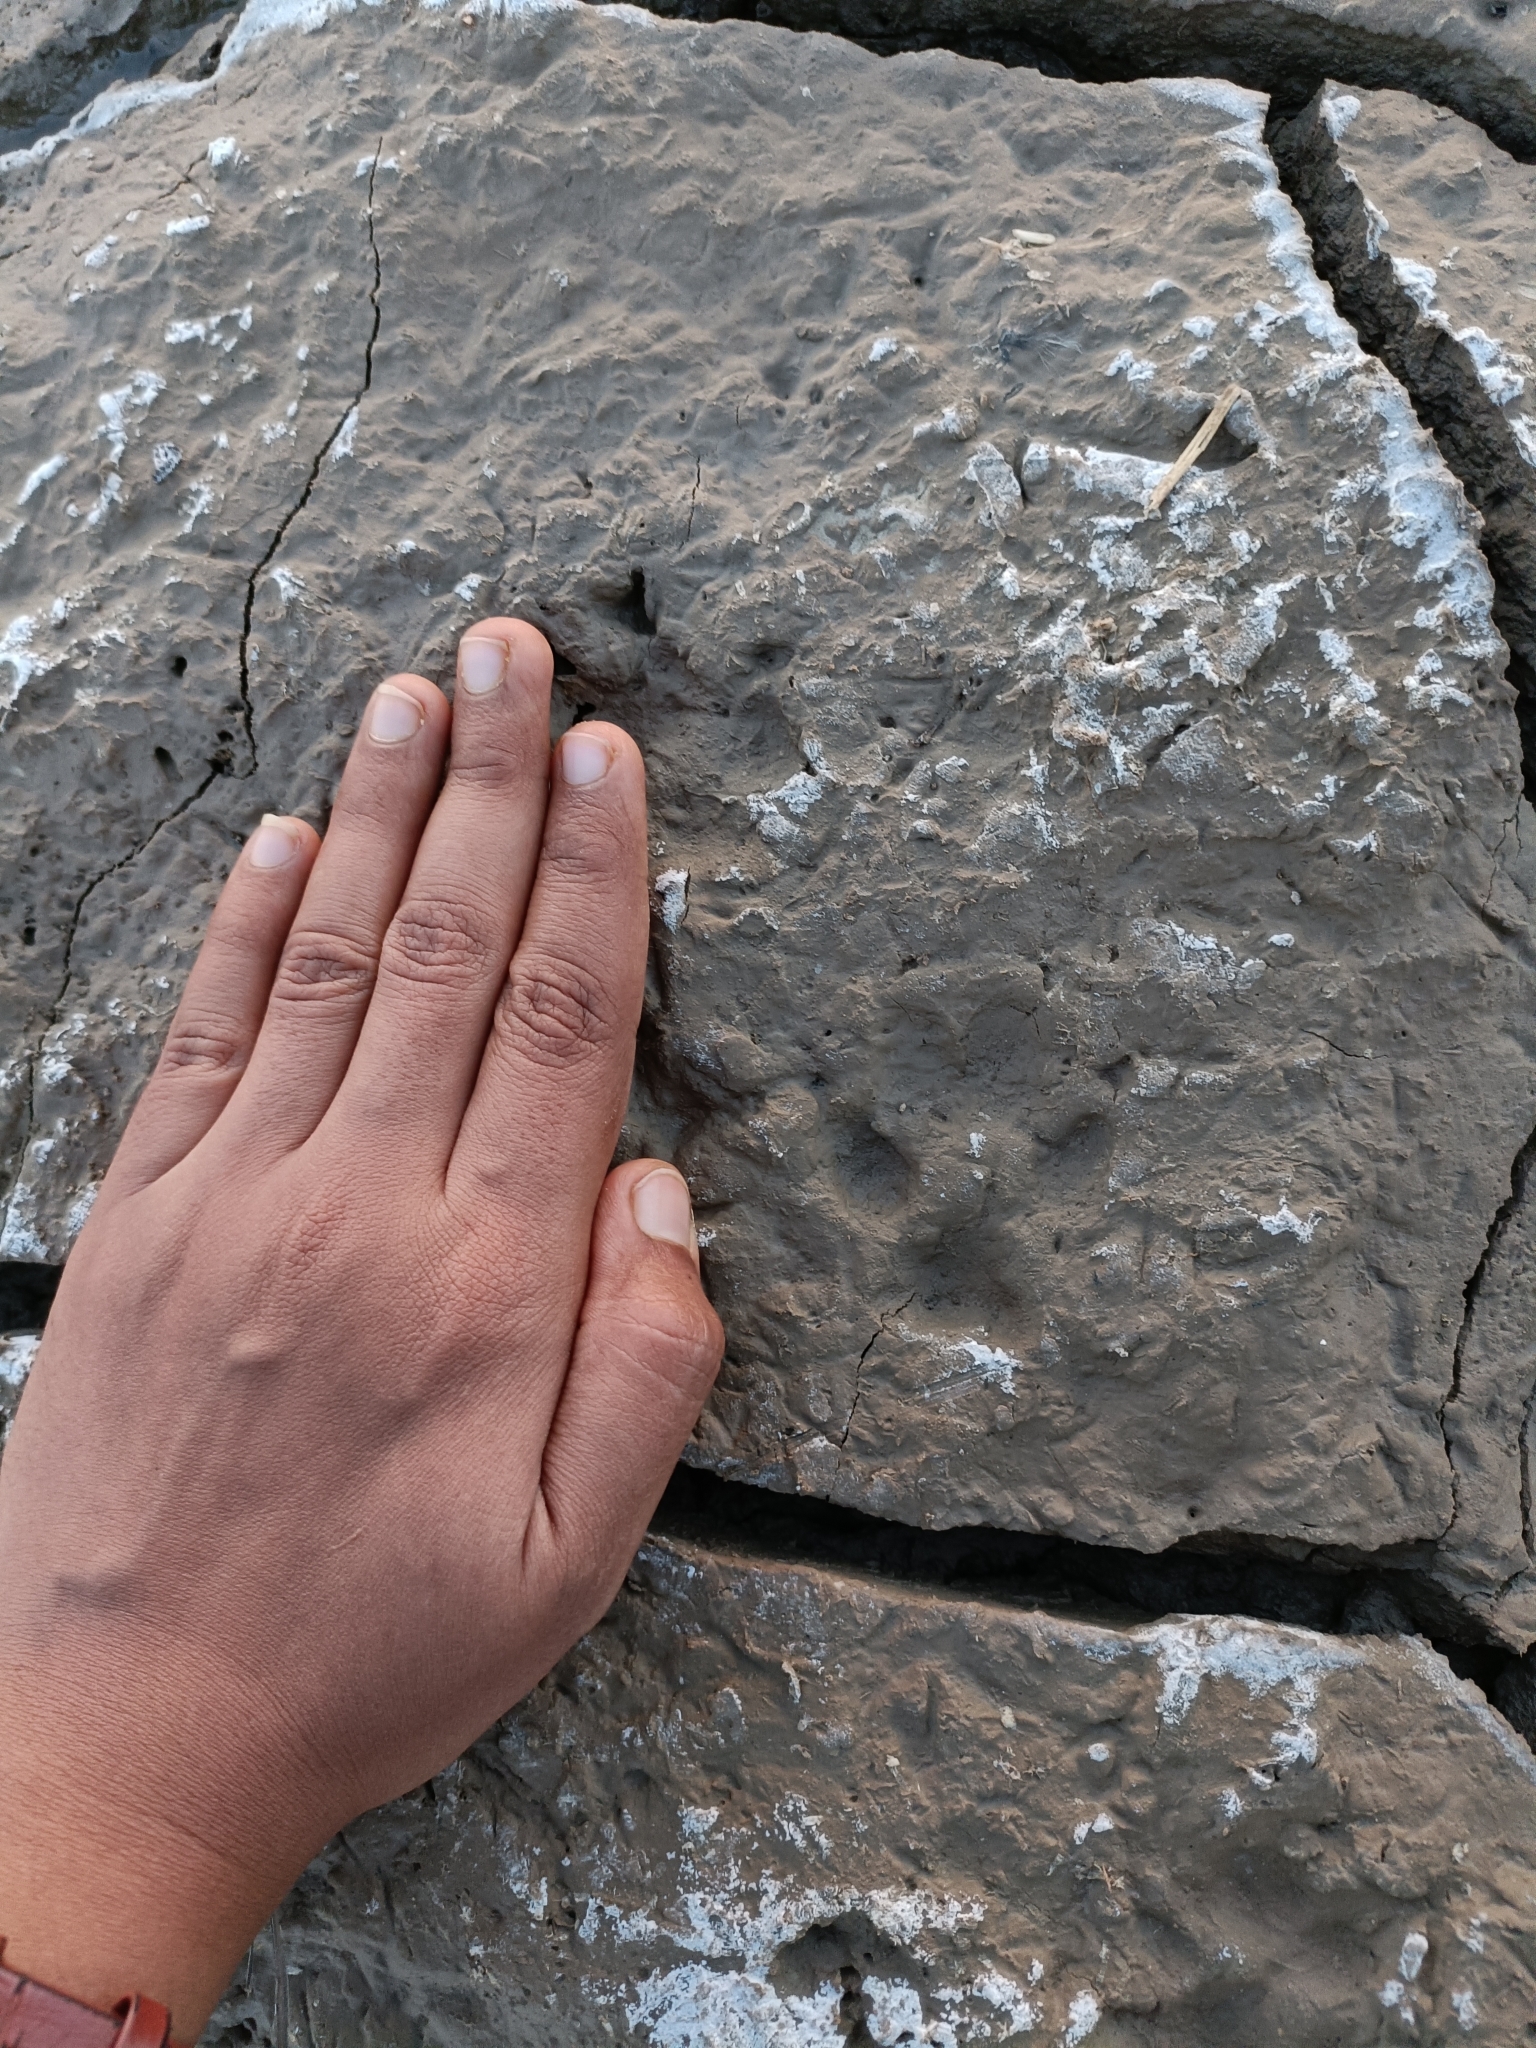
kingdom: Animalia
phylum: Chordata
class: Mammalia
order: Carnivora
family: Canidae
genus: Canis
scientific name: Canis aureus
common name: Golden jackal
